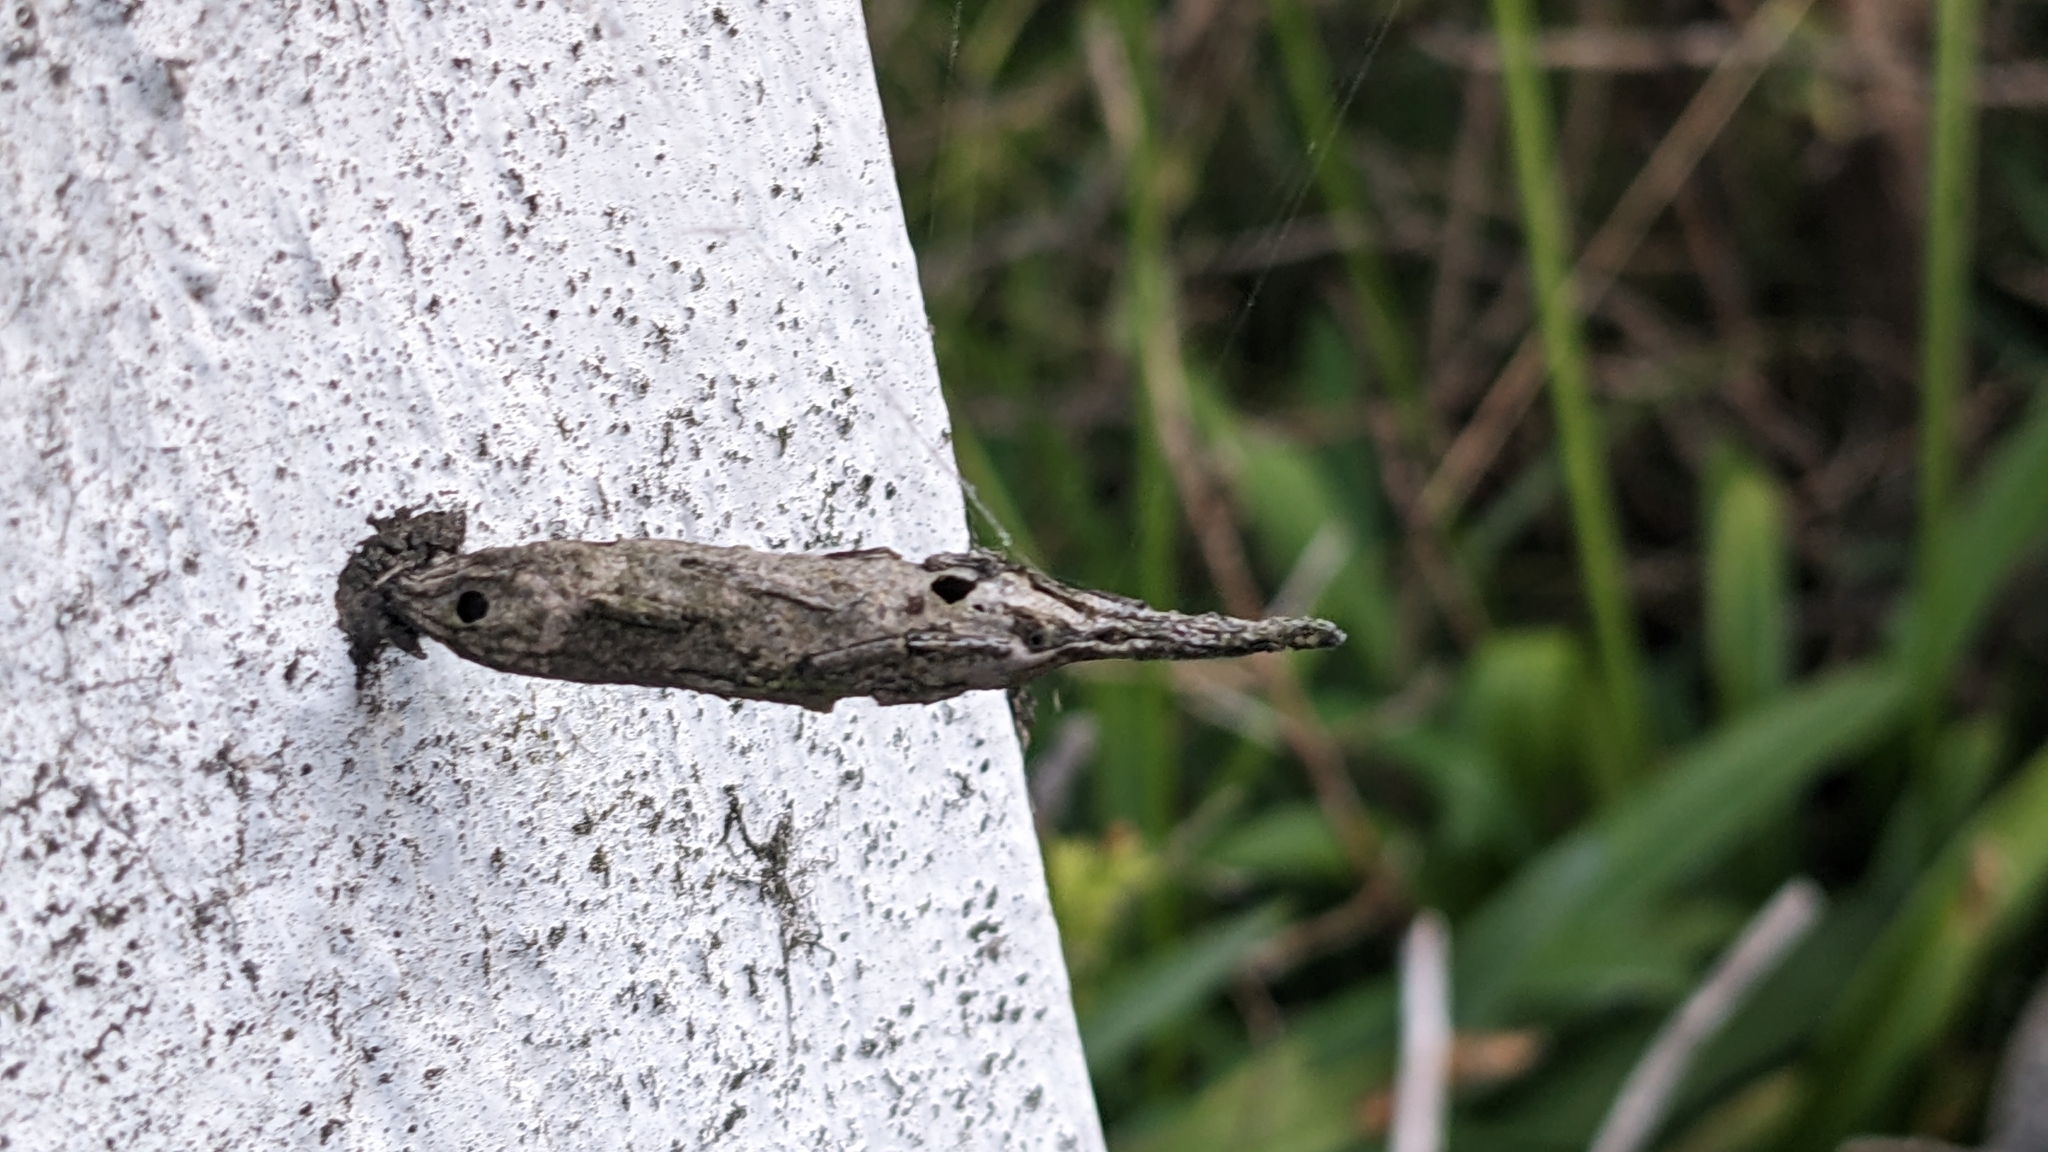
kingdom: Animalia
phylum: Arthropoda
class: Insecta
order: Lepidoptera
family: Psychidae
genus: Liothula
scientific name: Liothula omnivora
